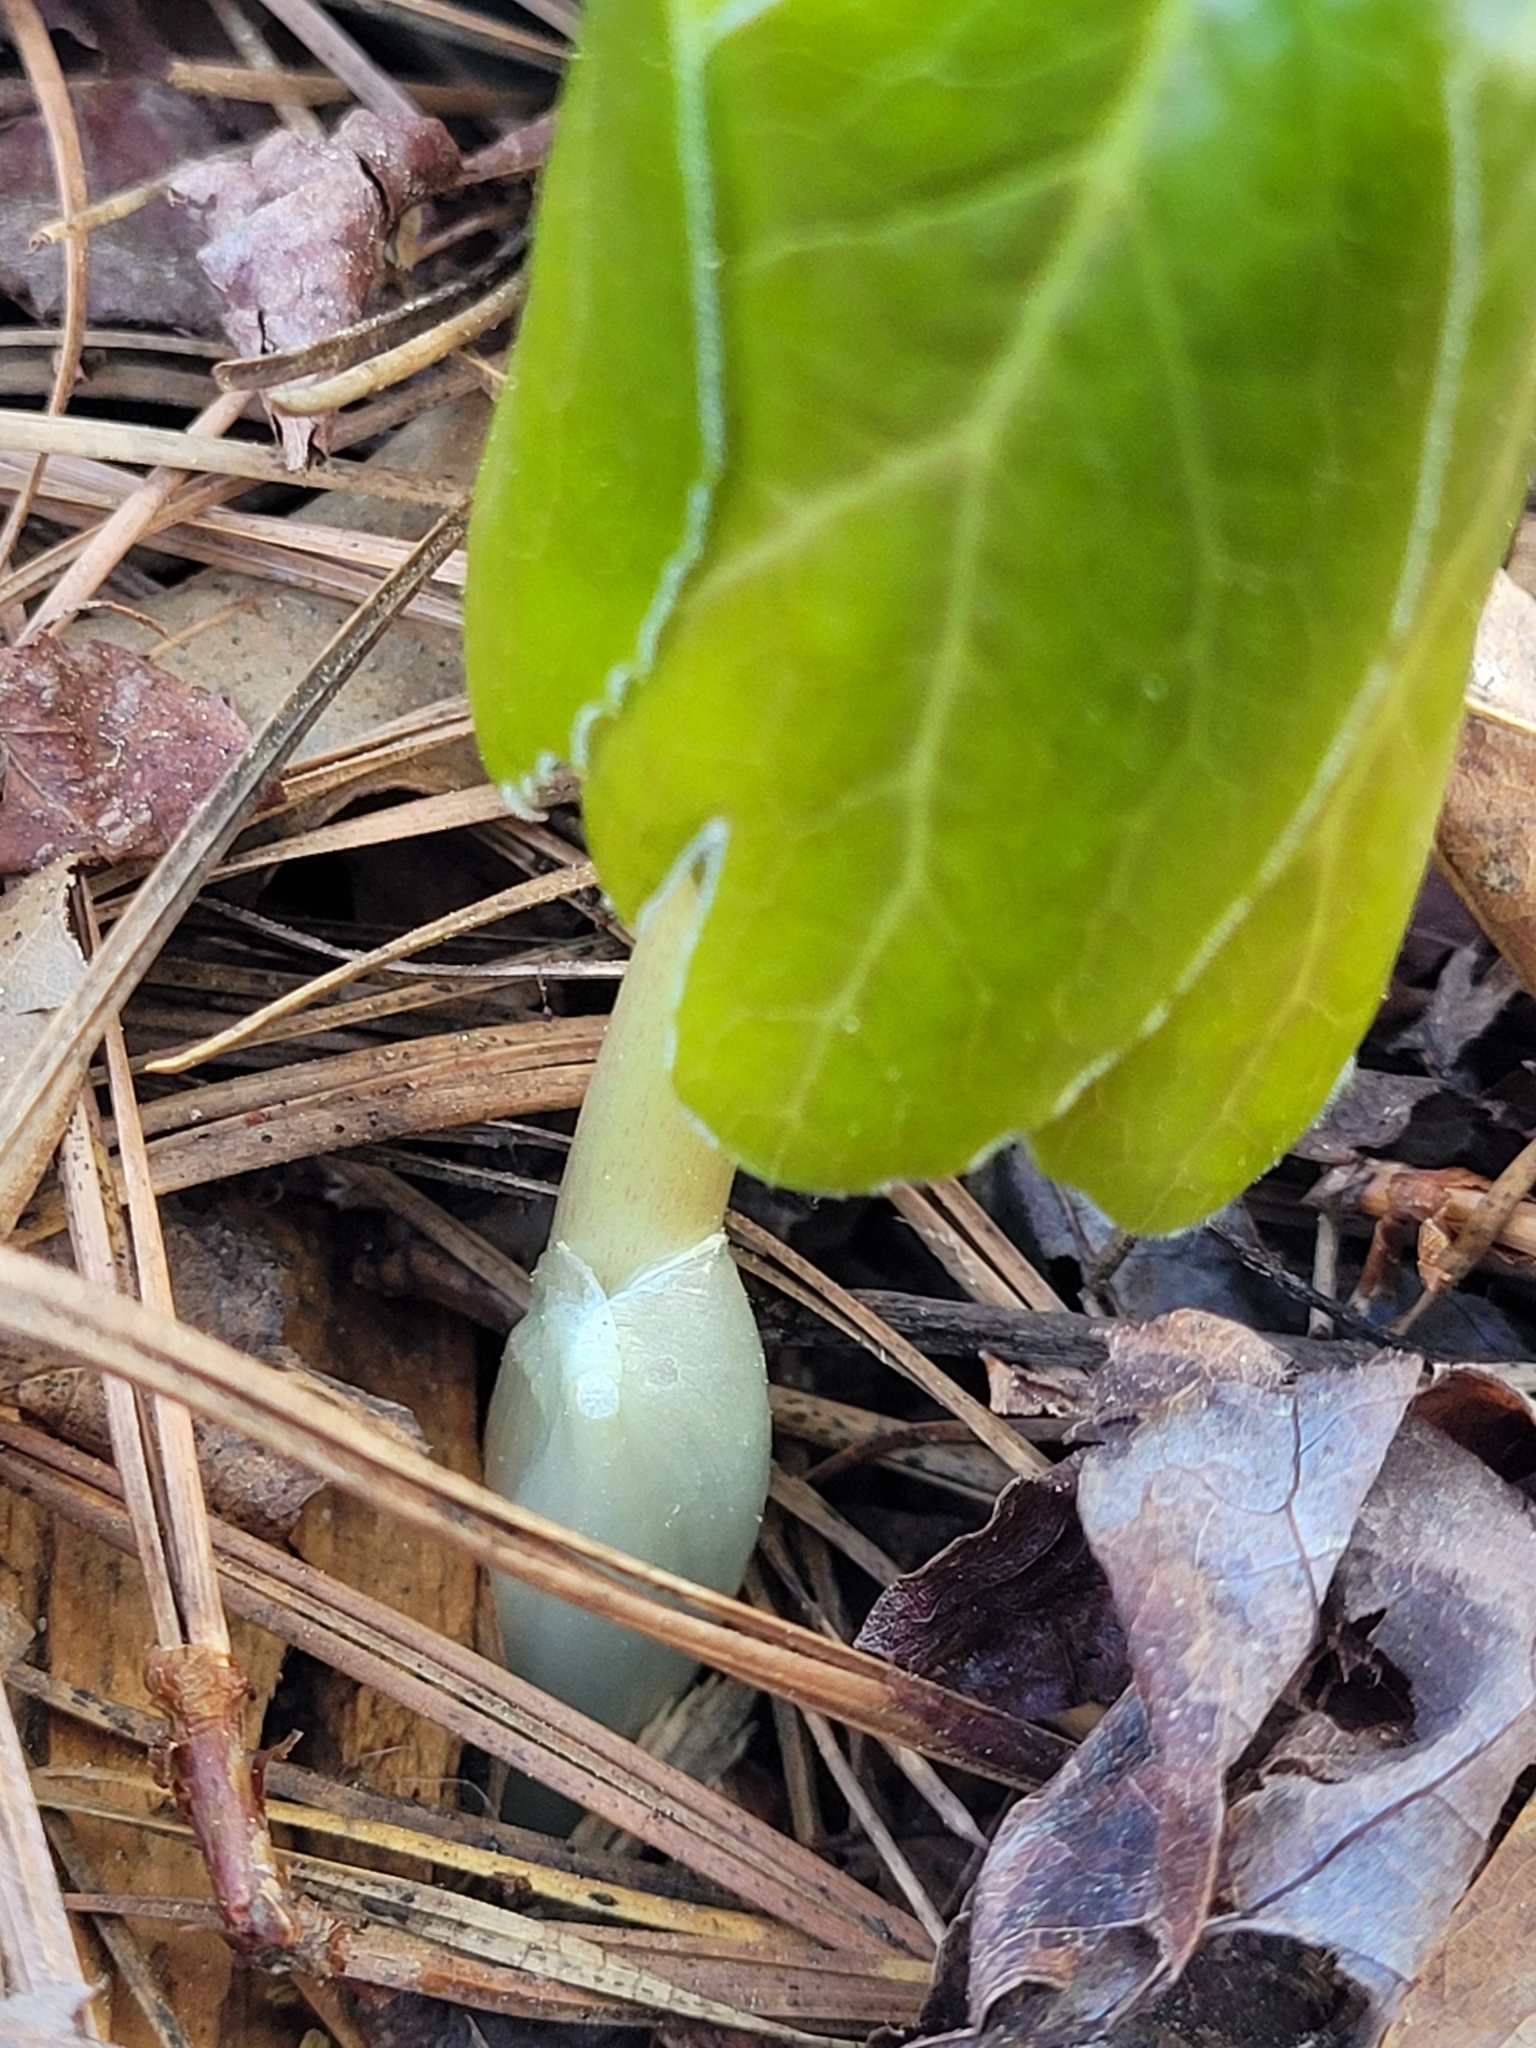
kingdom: Plantae
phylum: Tracheophyta
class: Magnoliopsida
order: Ranunculales
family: Berberidaceae
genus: Podophyllum
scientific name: Podophyllum peltatum
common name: Wild mandrake
